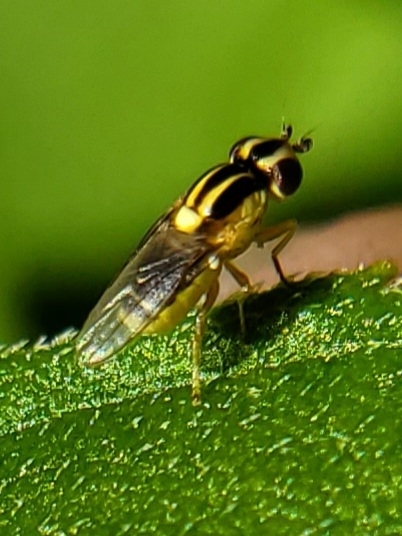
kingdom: Animalia
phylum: Arthropoda
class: Insecta
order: Diptera
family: Chloropidae
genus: Thaumatomyia
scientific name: Thaumatomyia glabra
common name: Chloropid fly
